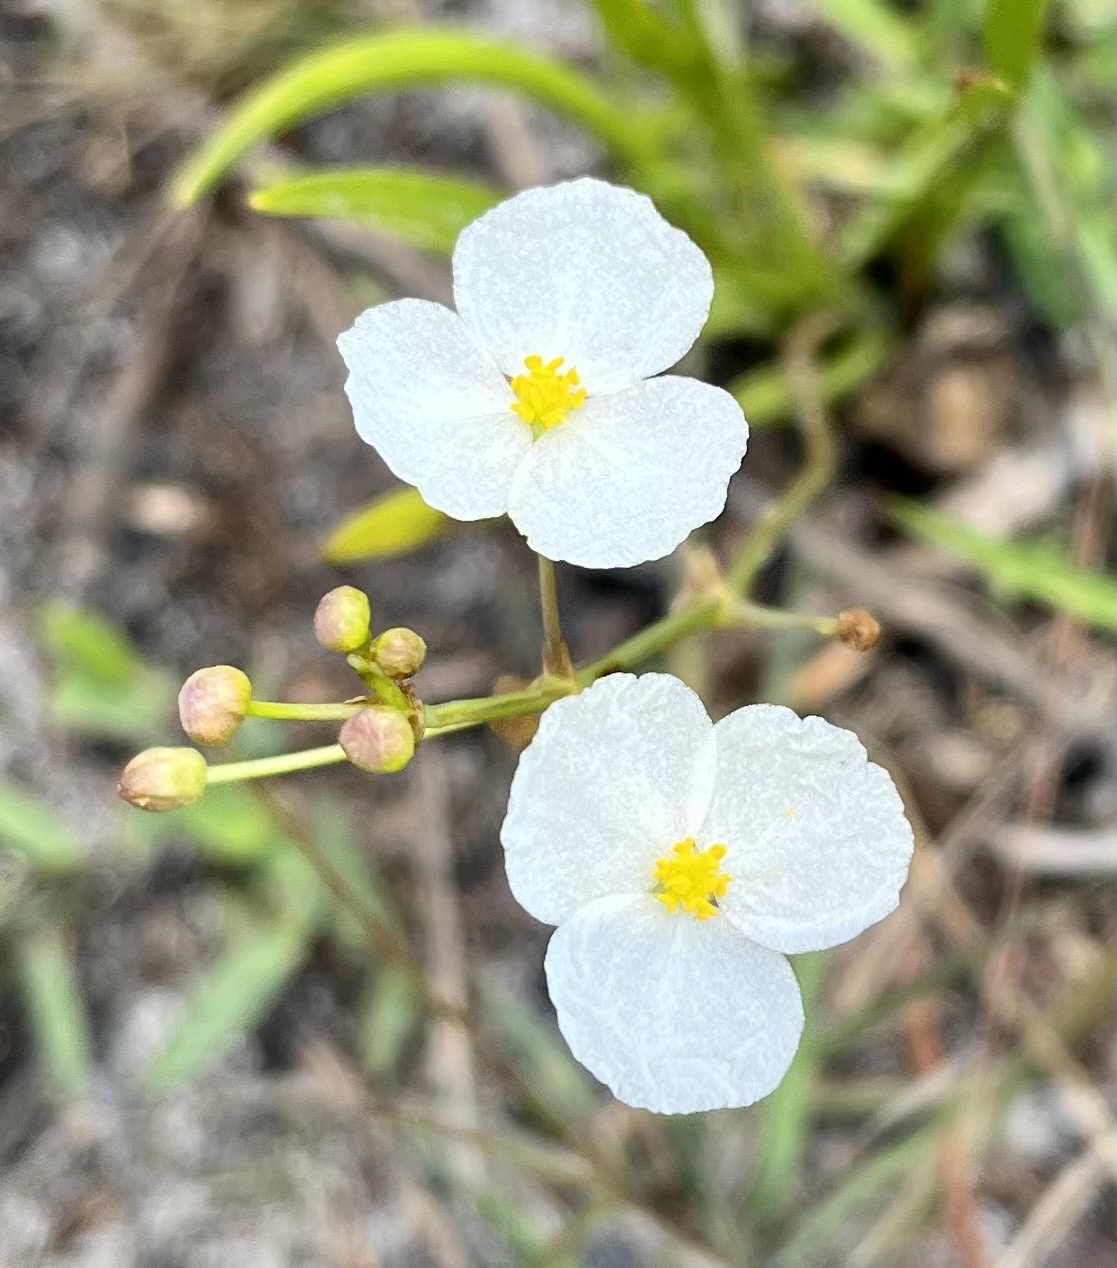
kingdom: Plantae
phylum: Tracheophyta
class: Liliopsida
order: Alismatales
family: Alismataceae
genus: Sagittaria
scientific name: Sagittaria graminea
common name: Grass-leaved arrowhead
